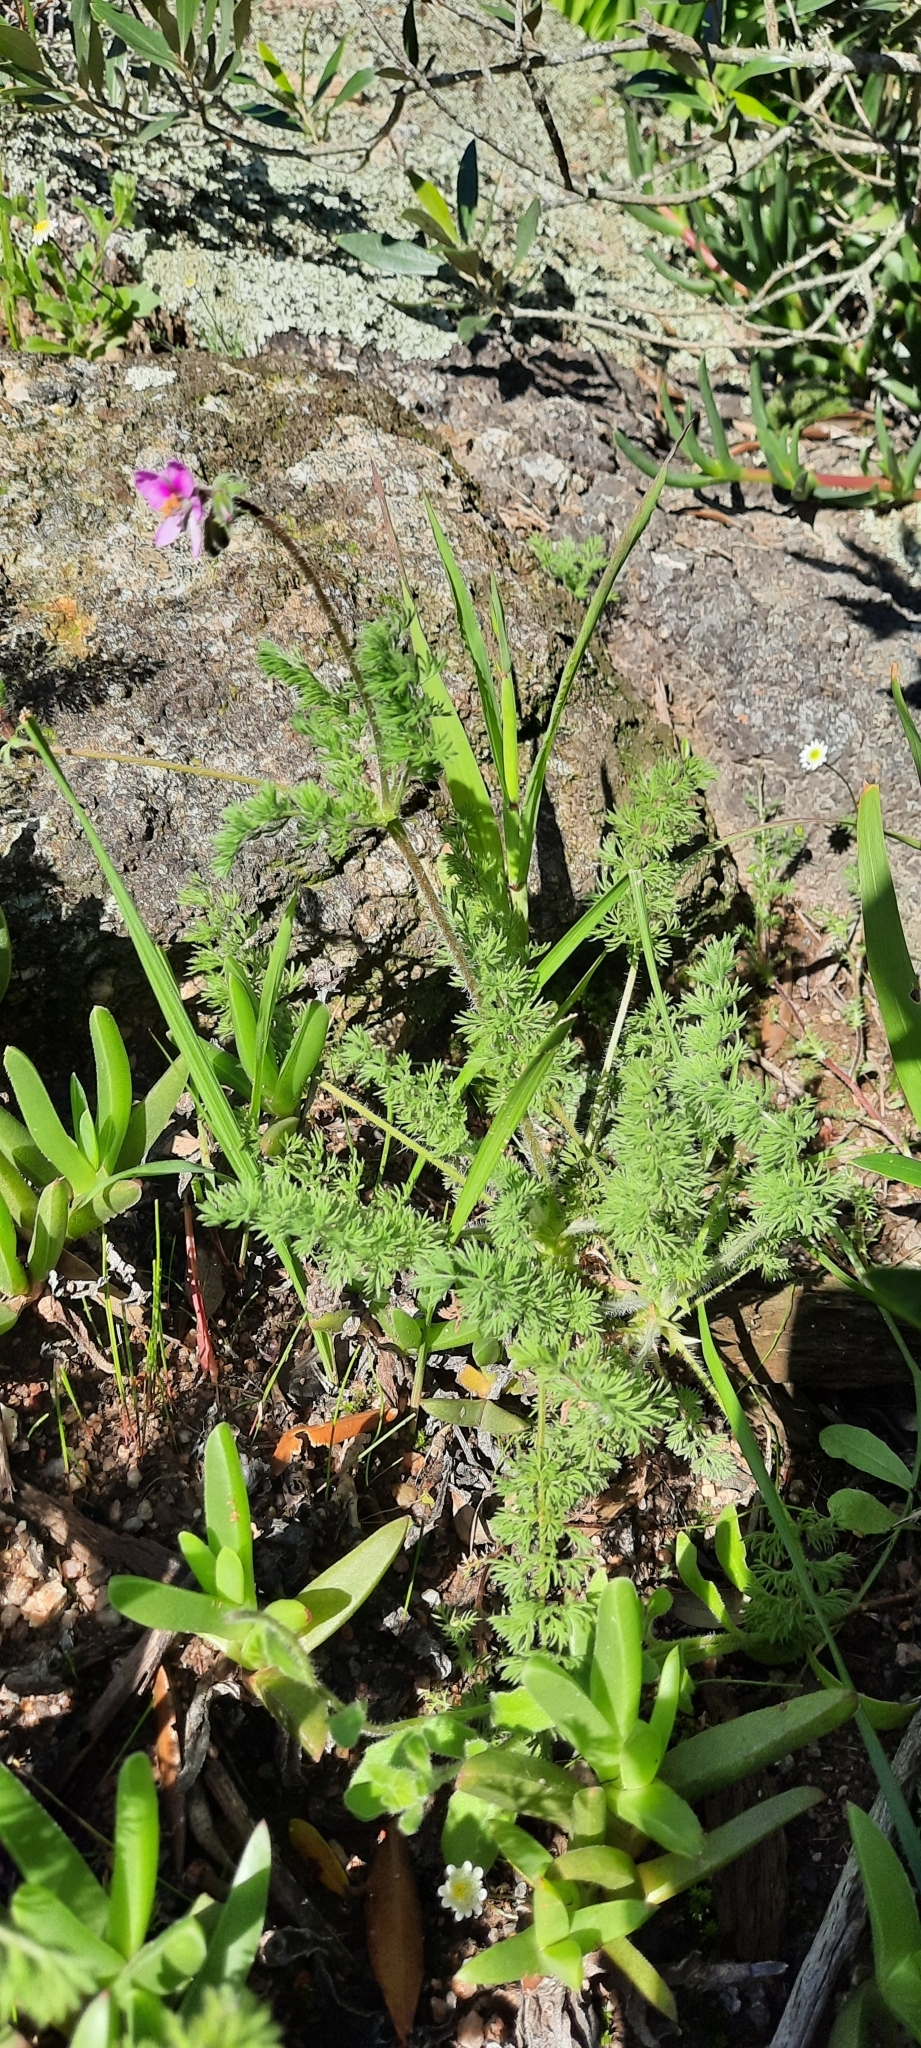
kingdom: Plantae
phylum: Tracheophyta
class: Magnoliopsida
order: Geraniales
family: Geraniaceae
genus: Pelargonium
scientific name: Pelargonium hirtum
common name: Fine-leaf pelargonium
